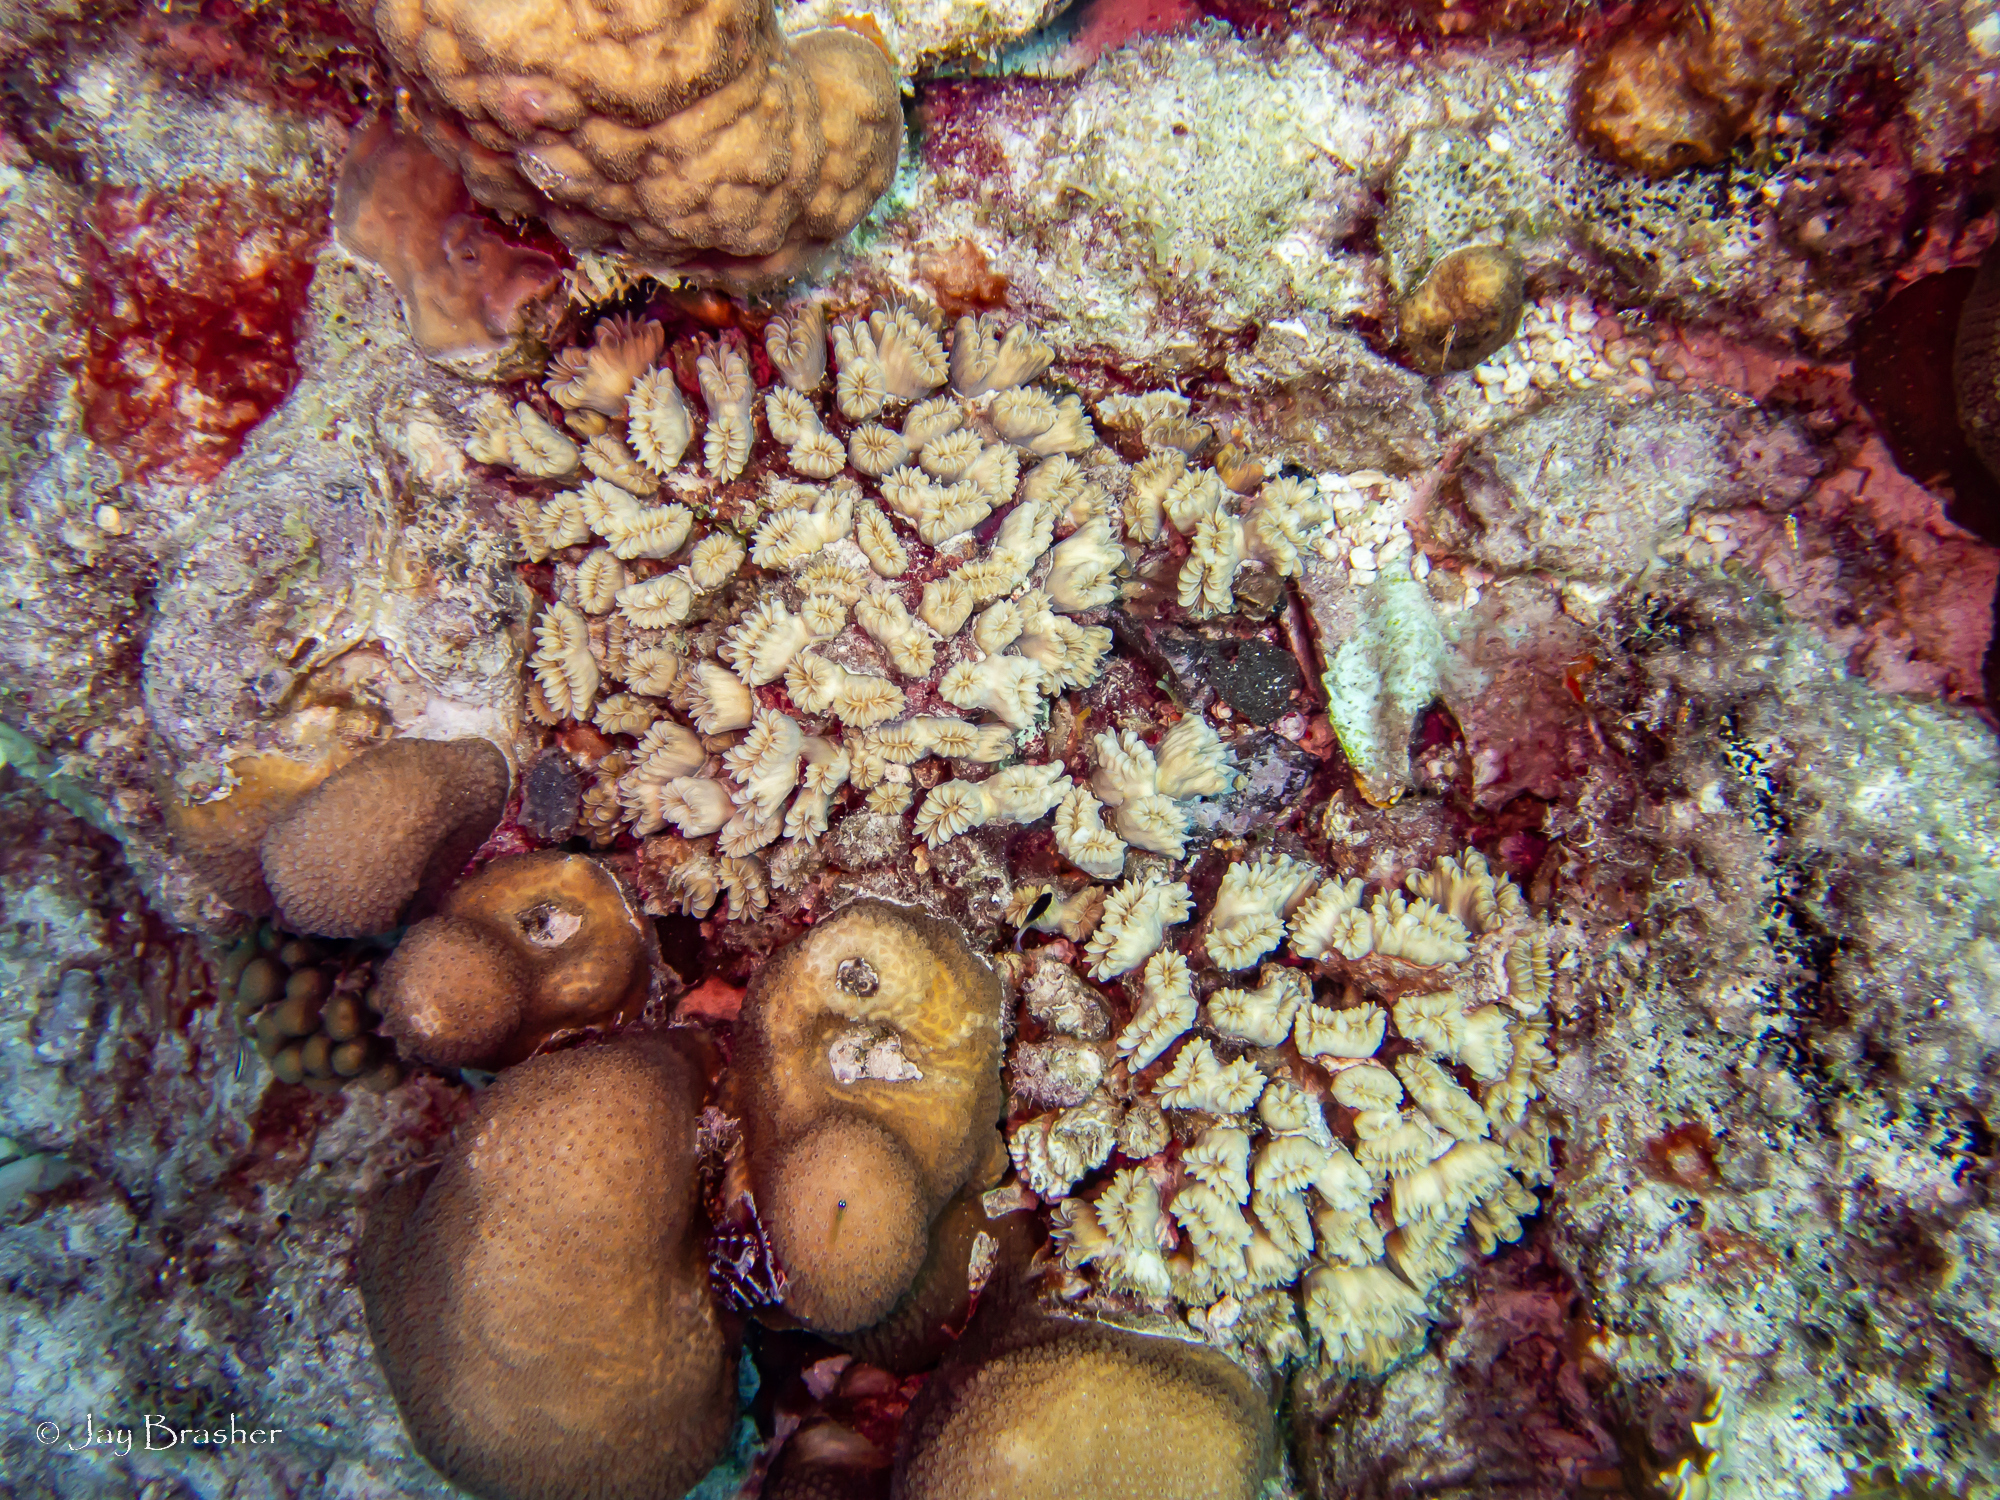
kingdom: Animalia
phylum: Cnidaria
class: Anthozoa
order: Scleractinia
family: Poritidae
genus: Porites
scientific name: Porites astreoides
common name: Mustard hill coral
